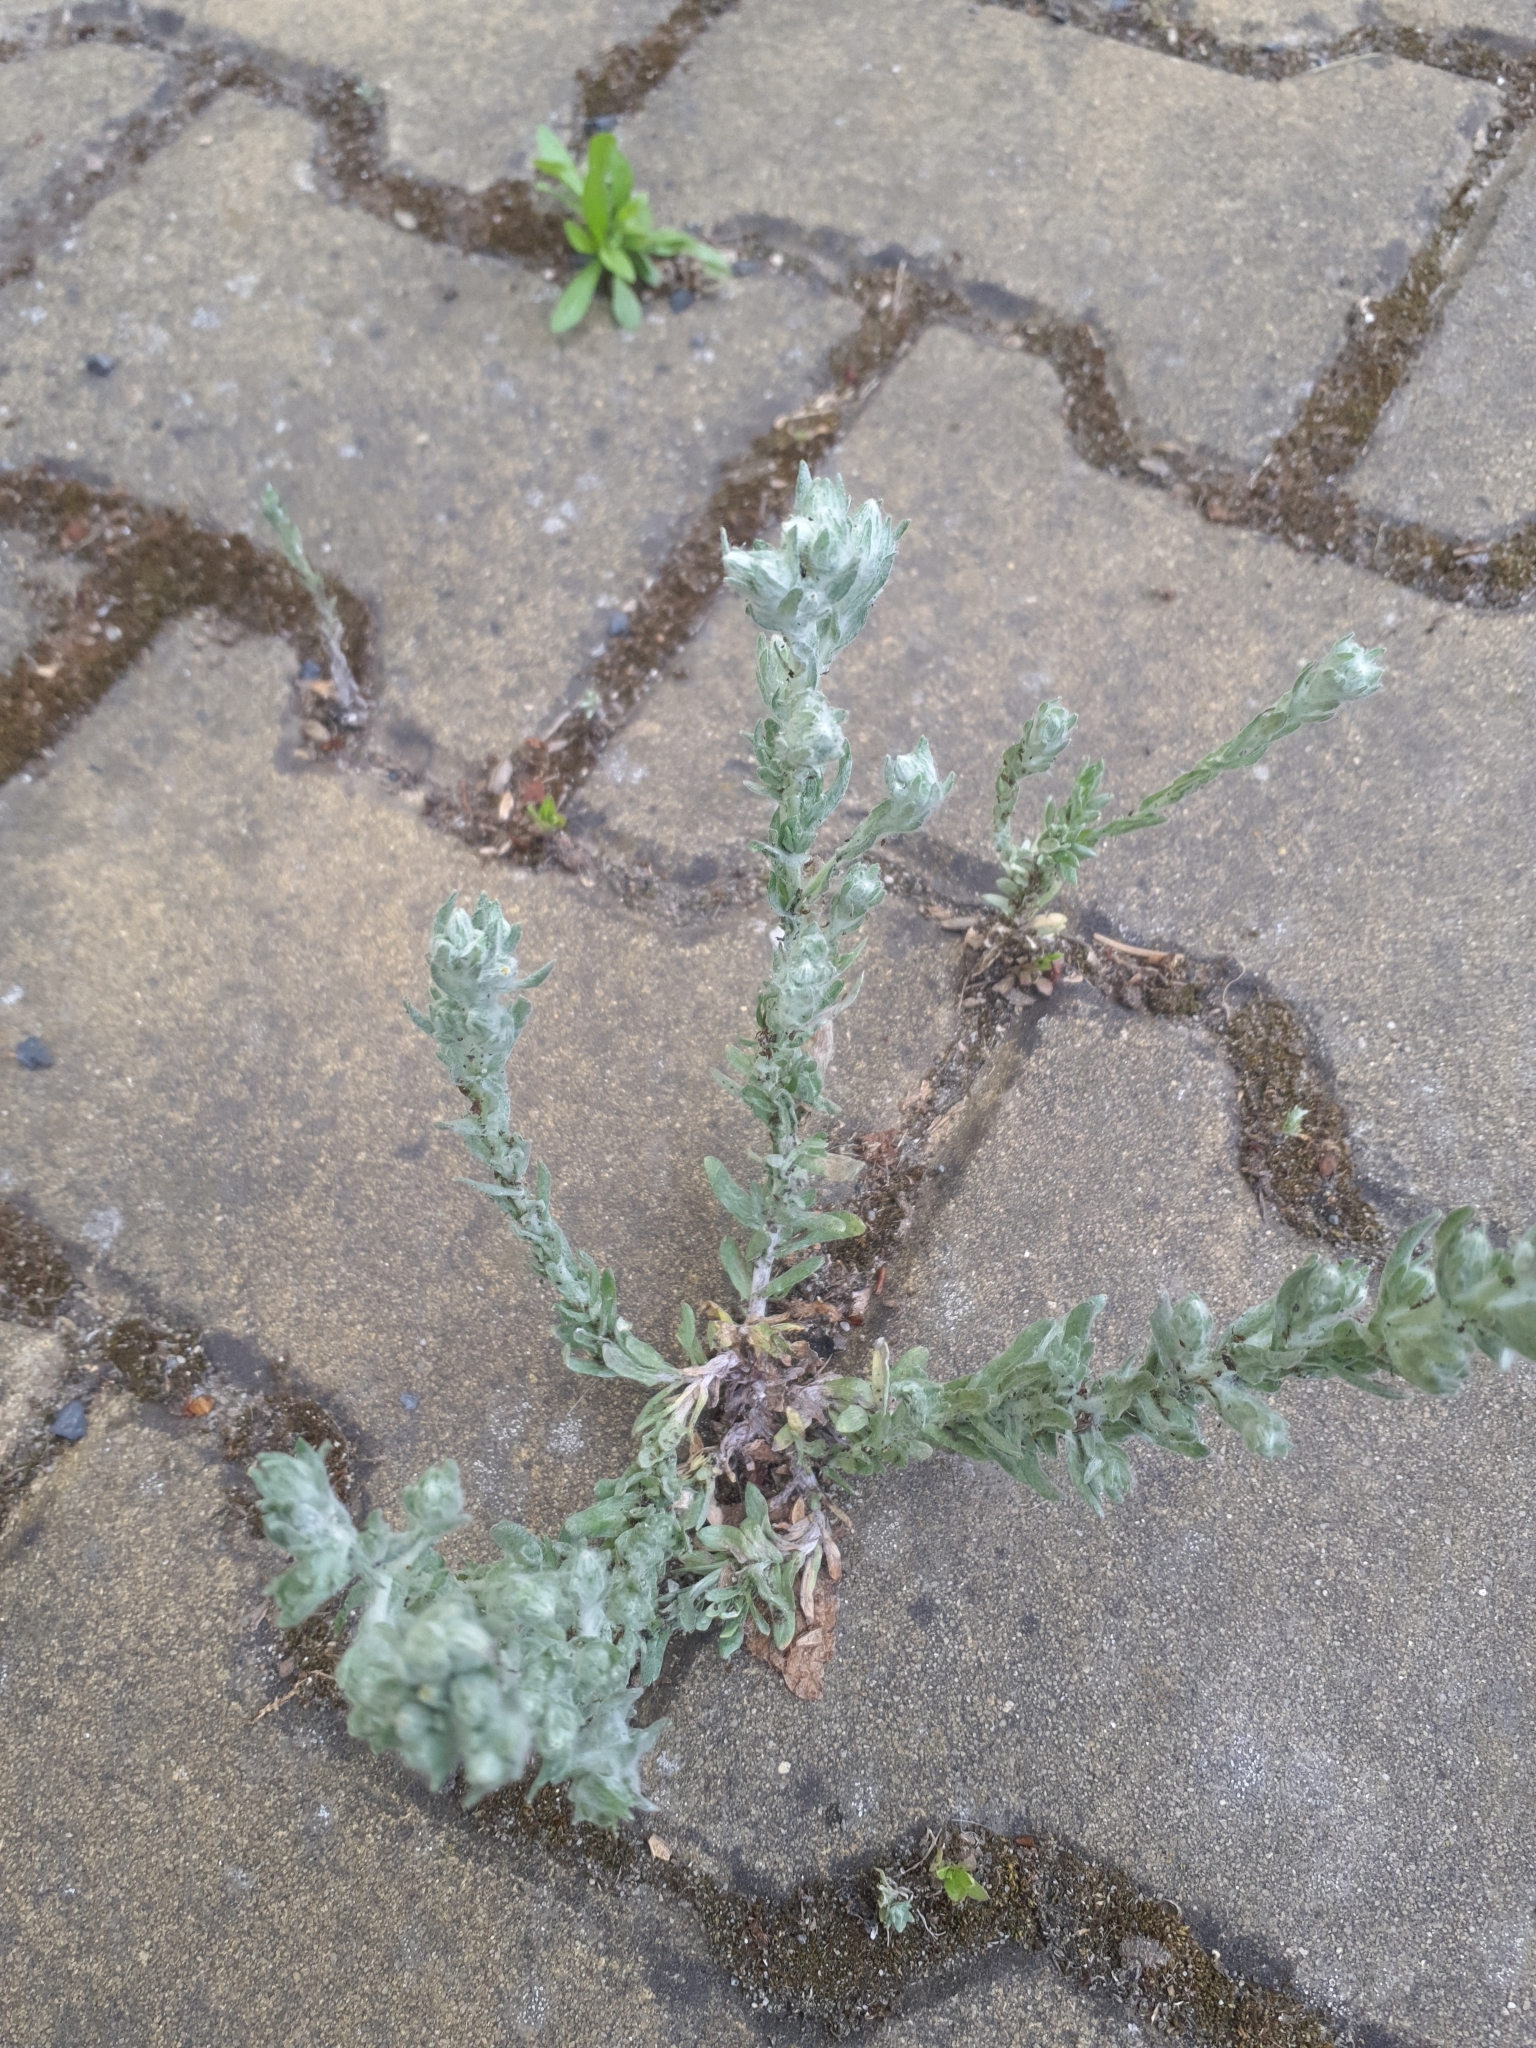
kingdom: Plantae
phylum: Tracheophyta
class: Magnoliopsida
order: Asterales
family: Asteraceae
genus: Filago
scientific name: Filago arvensis
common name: Field cudweed
